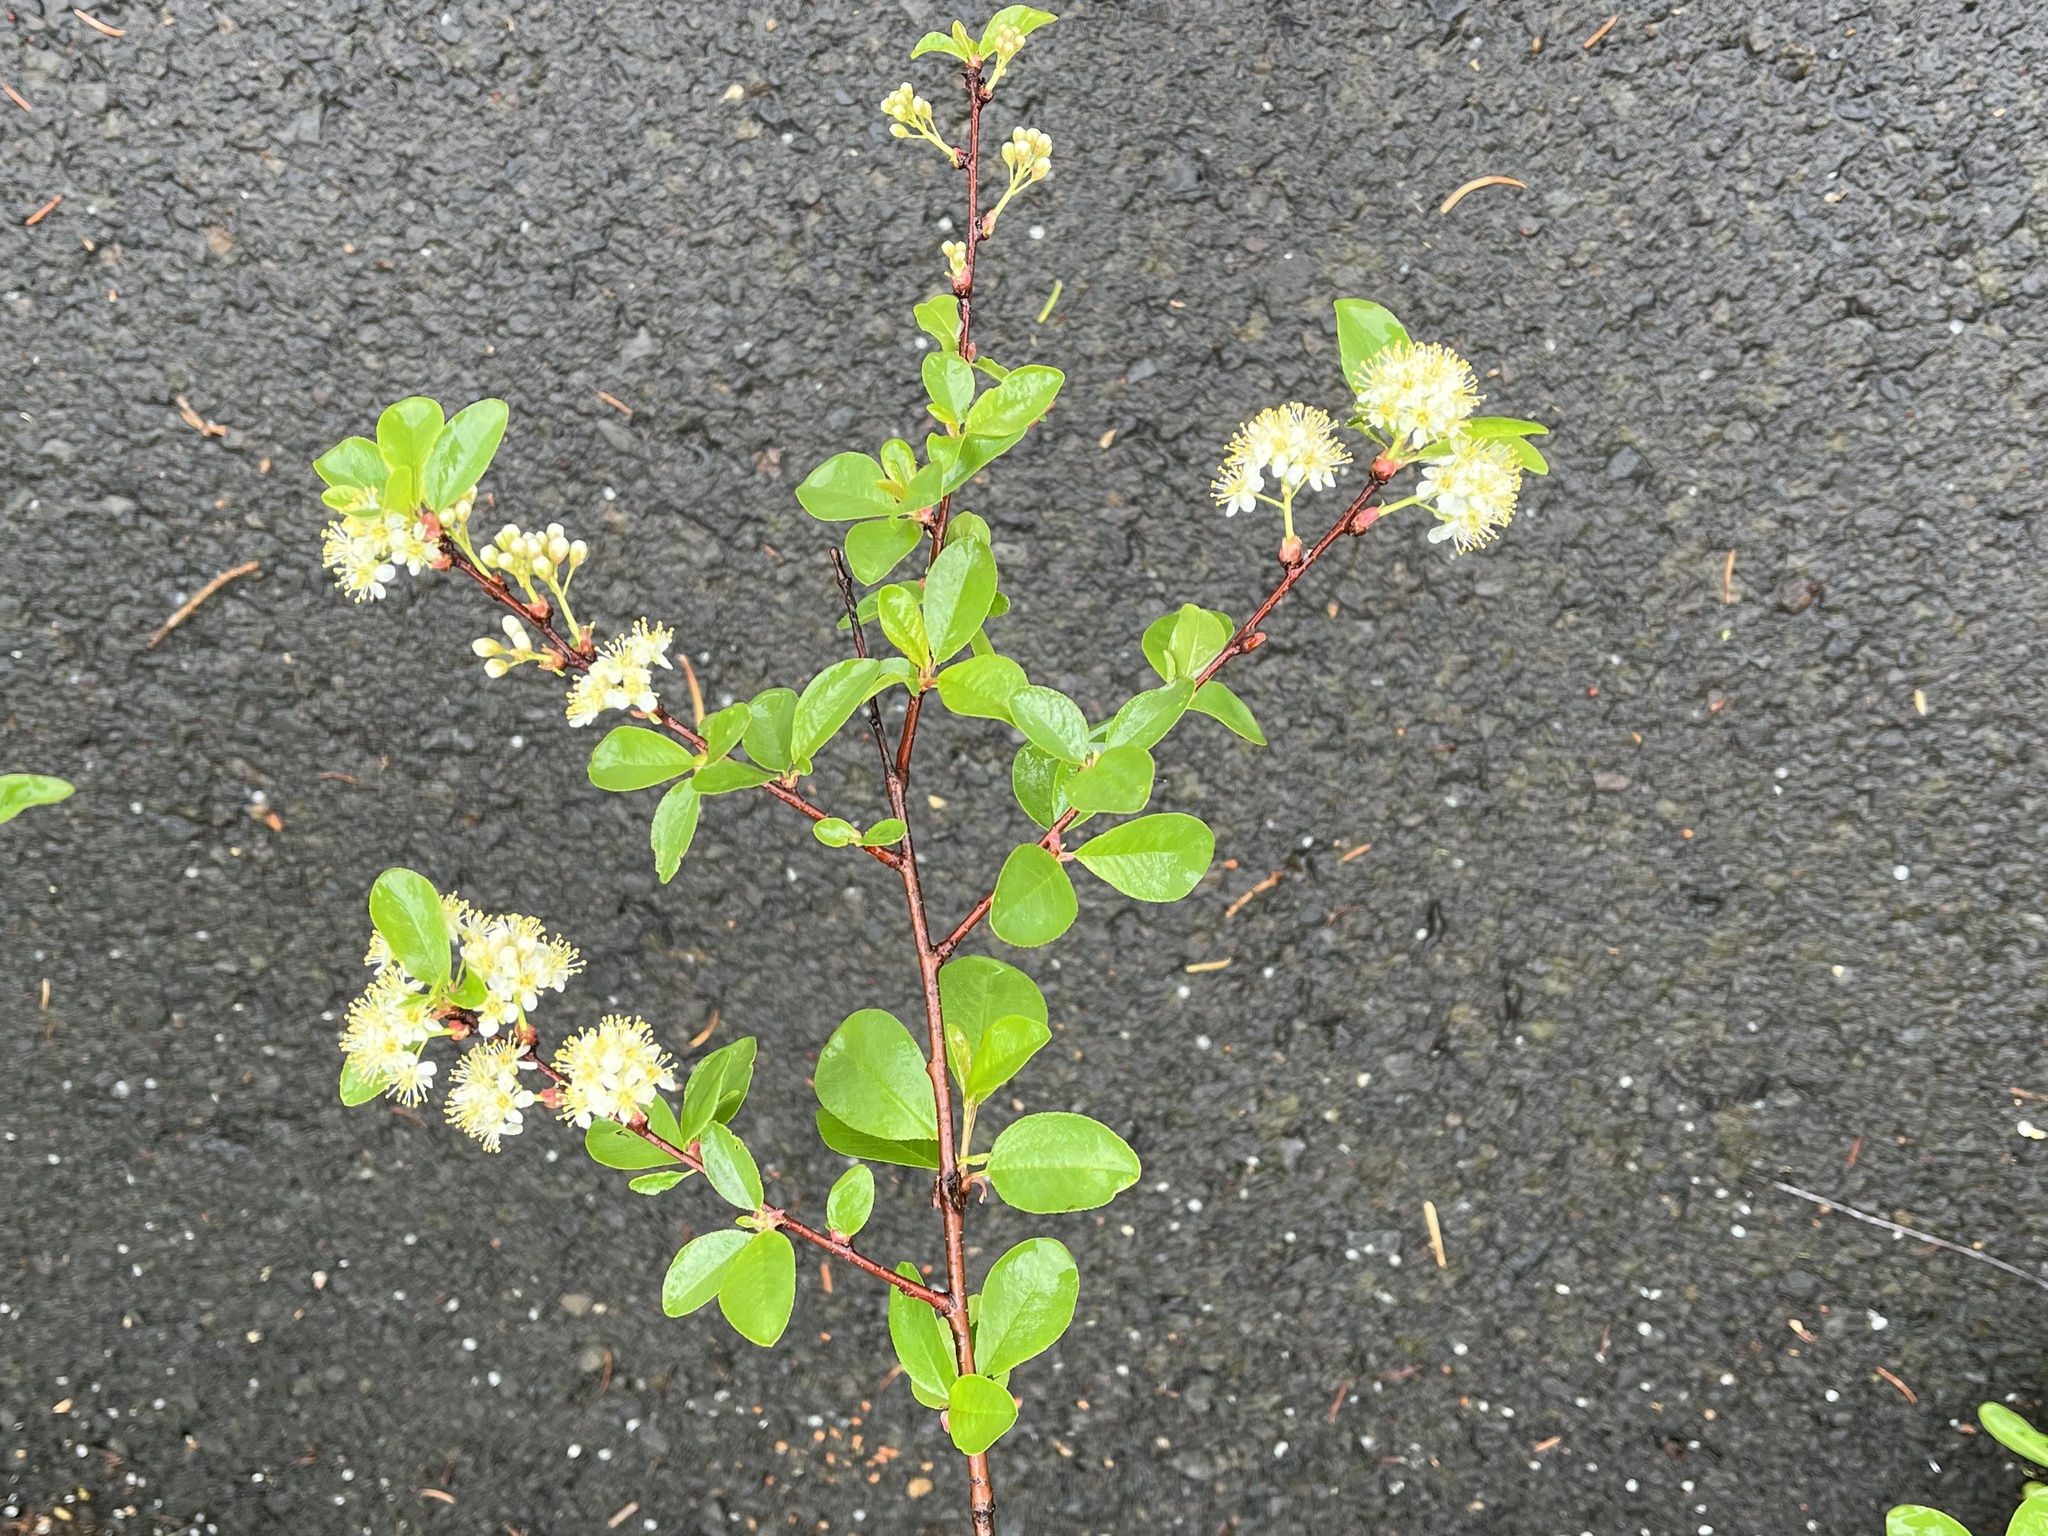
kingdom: Plantae
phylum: Tracheophyta
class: Magnoliopsida
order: Rosales
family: Rosaceae
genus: Prunus
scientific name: Prunus emarginata
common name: Bitter cherry
